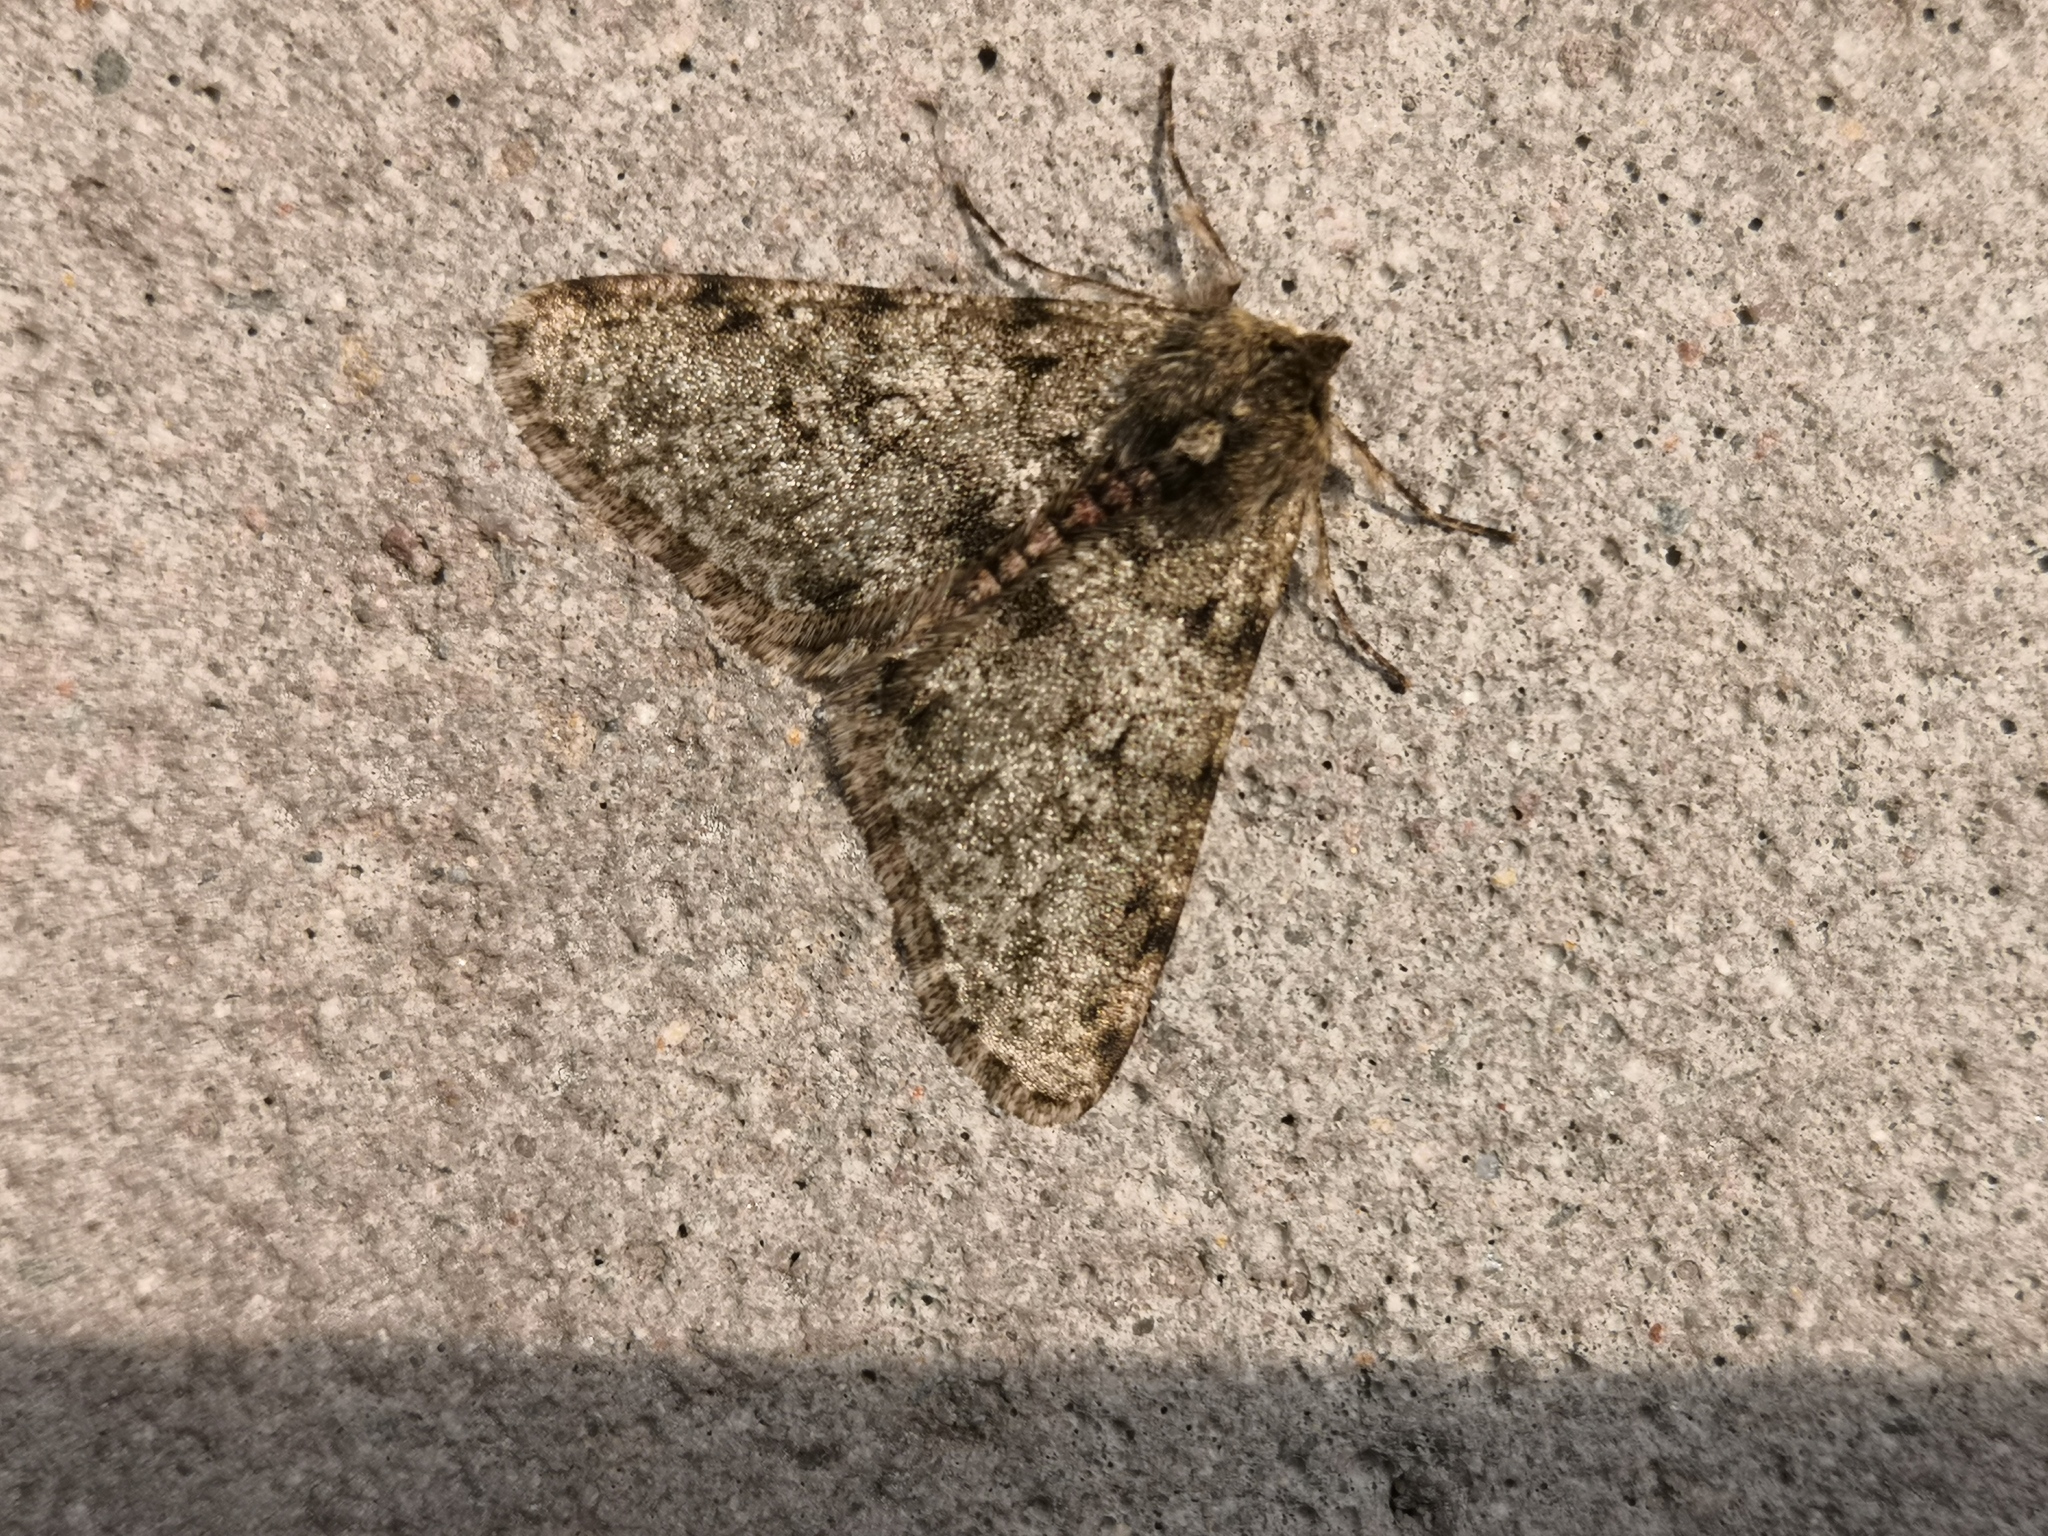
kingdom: Animalia
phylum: Arthropoda
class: Insecta
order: Lepidoptera
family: Geometridae
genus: Phigalia
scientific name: Phigalia pilosaria
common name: Pale brindled beauty
